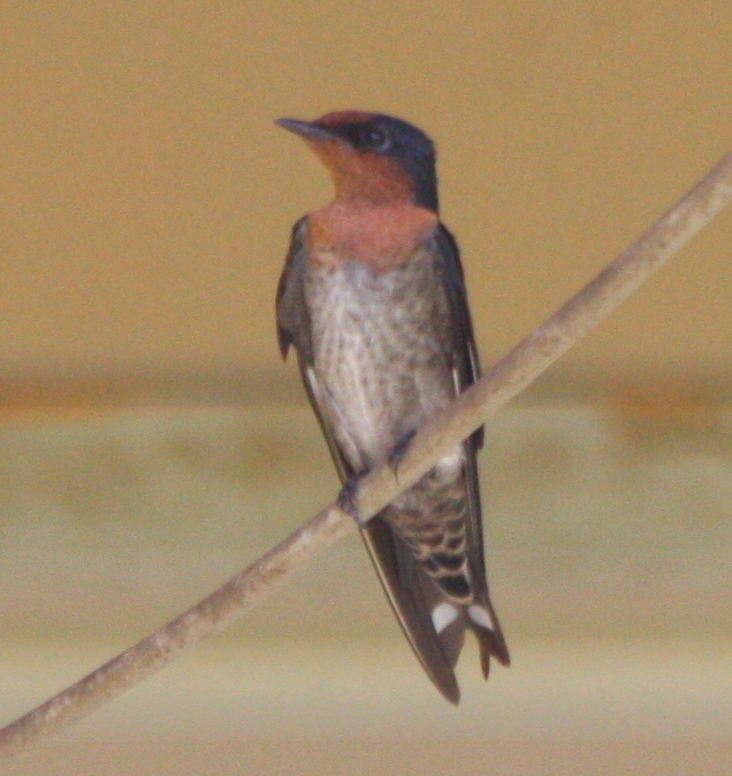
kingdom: Animalia
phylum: Chordata
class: Aves
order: Passeriformes
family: Hirundinidae
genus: Hirundo
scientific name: Hirundo tahitica
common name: Pacific swallow
